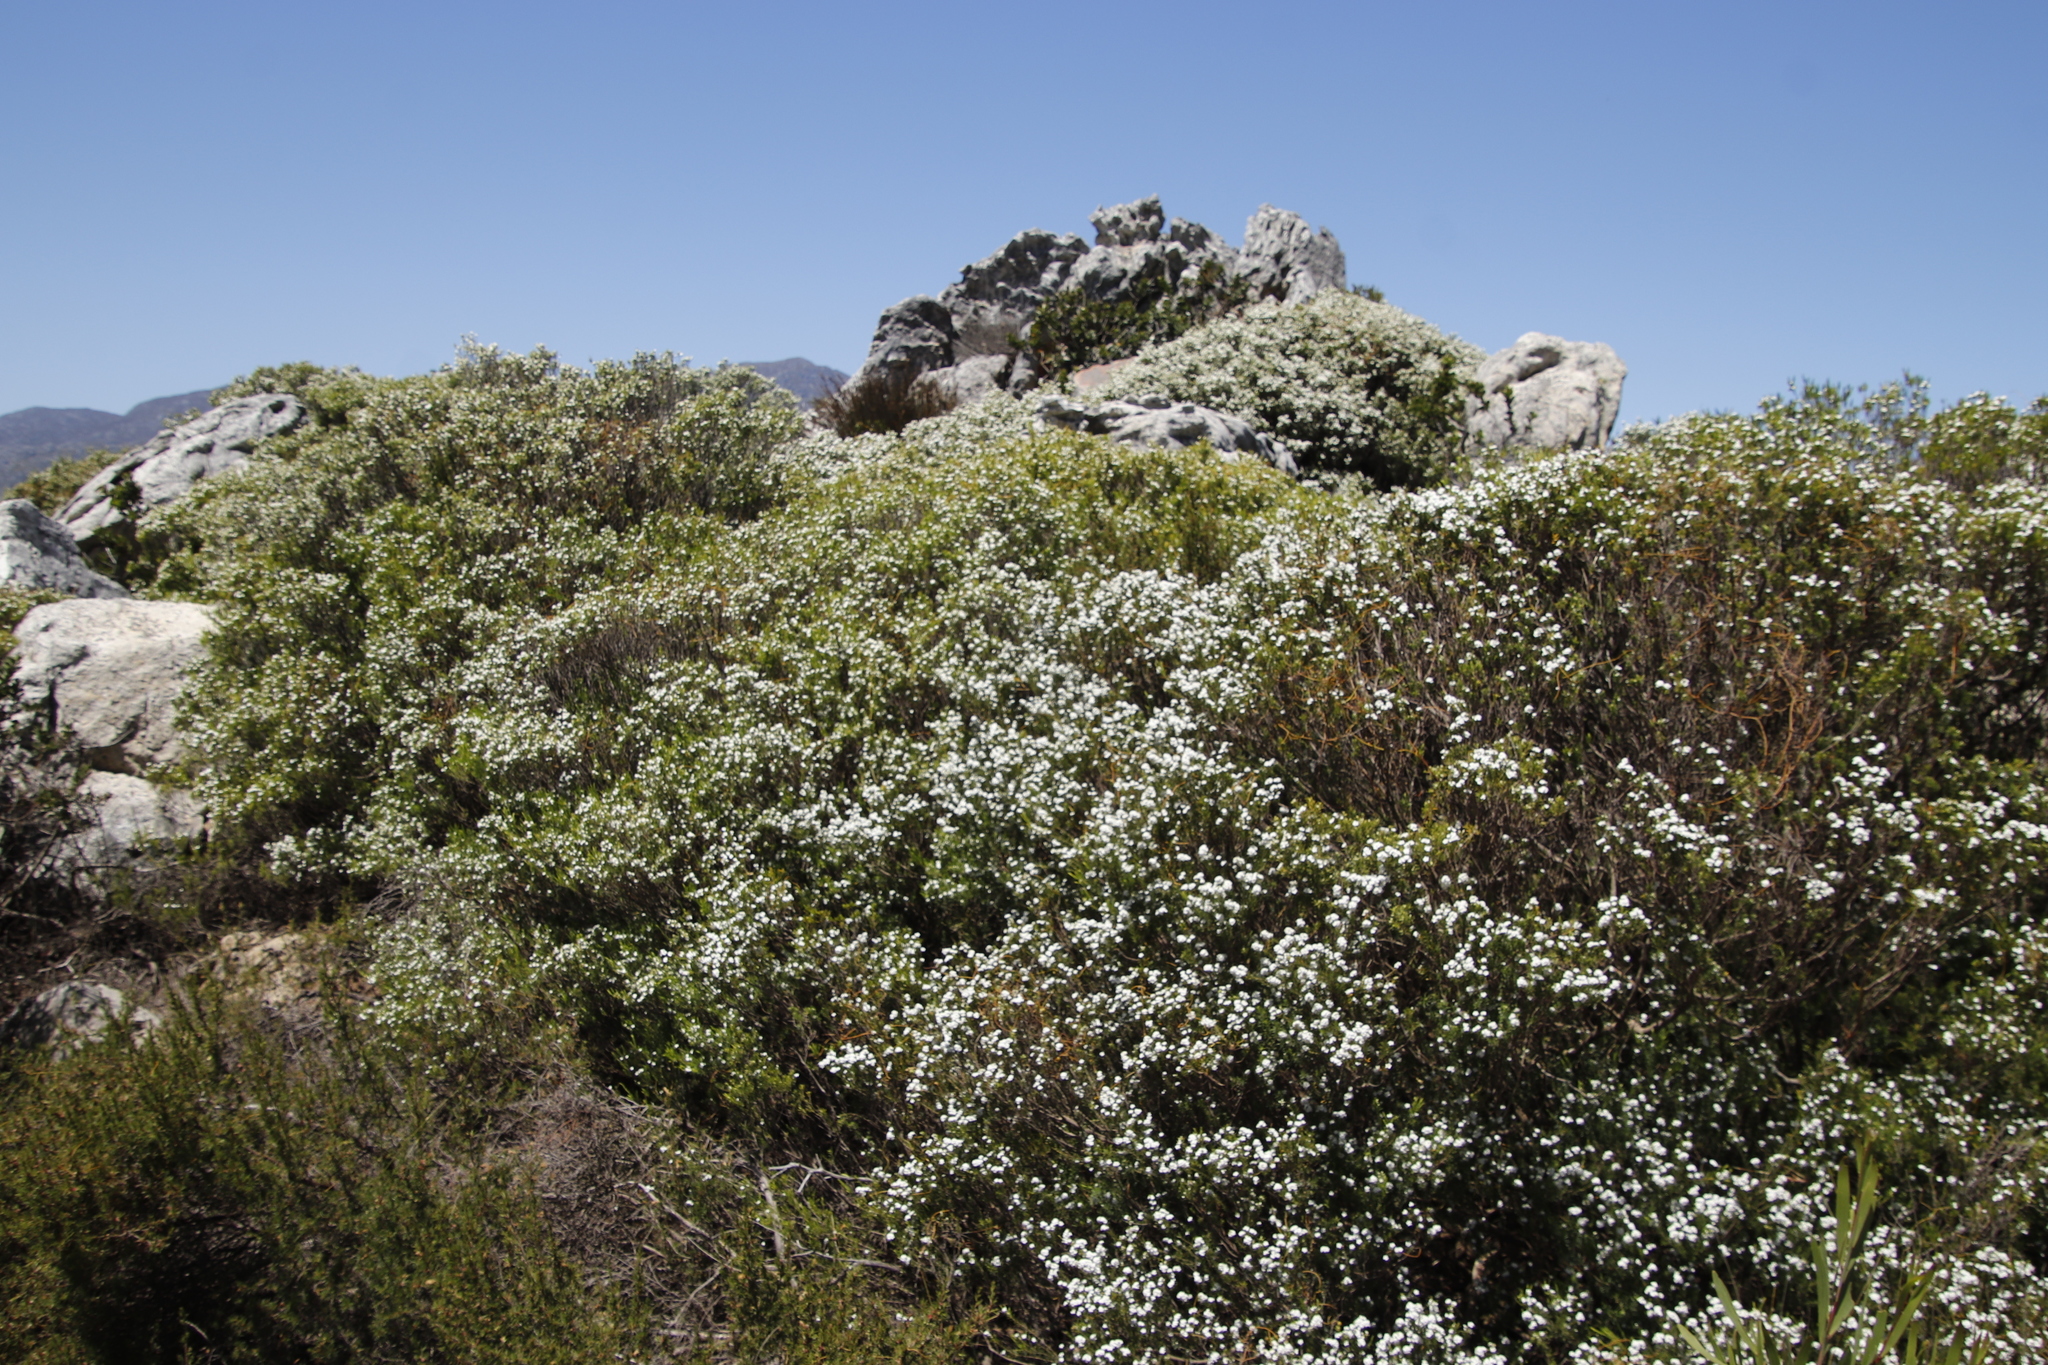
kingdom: Plantae
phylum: Tracheophyta
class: Magnoliopsida
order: Sapindales
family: Rutaceae
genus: Coleonema
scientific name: Coleonema album
